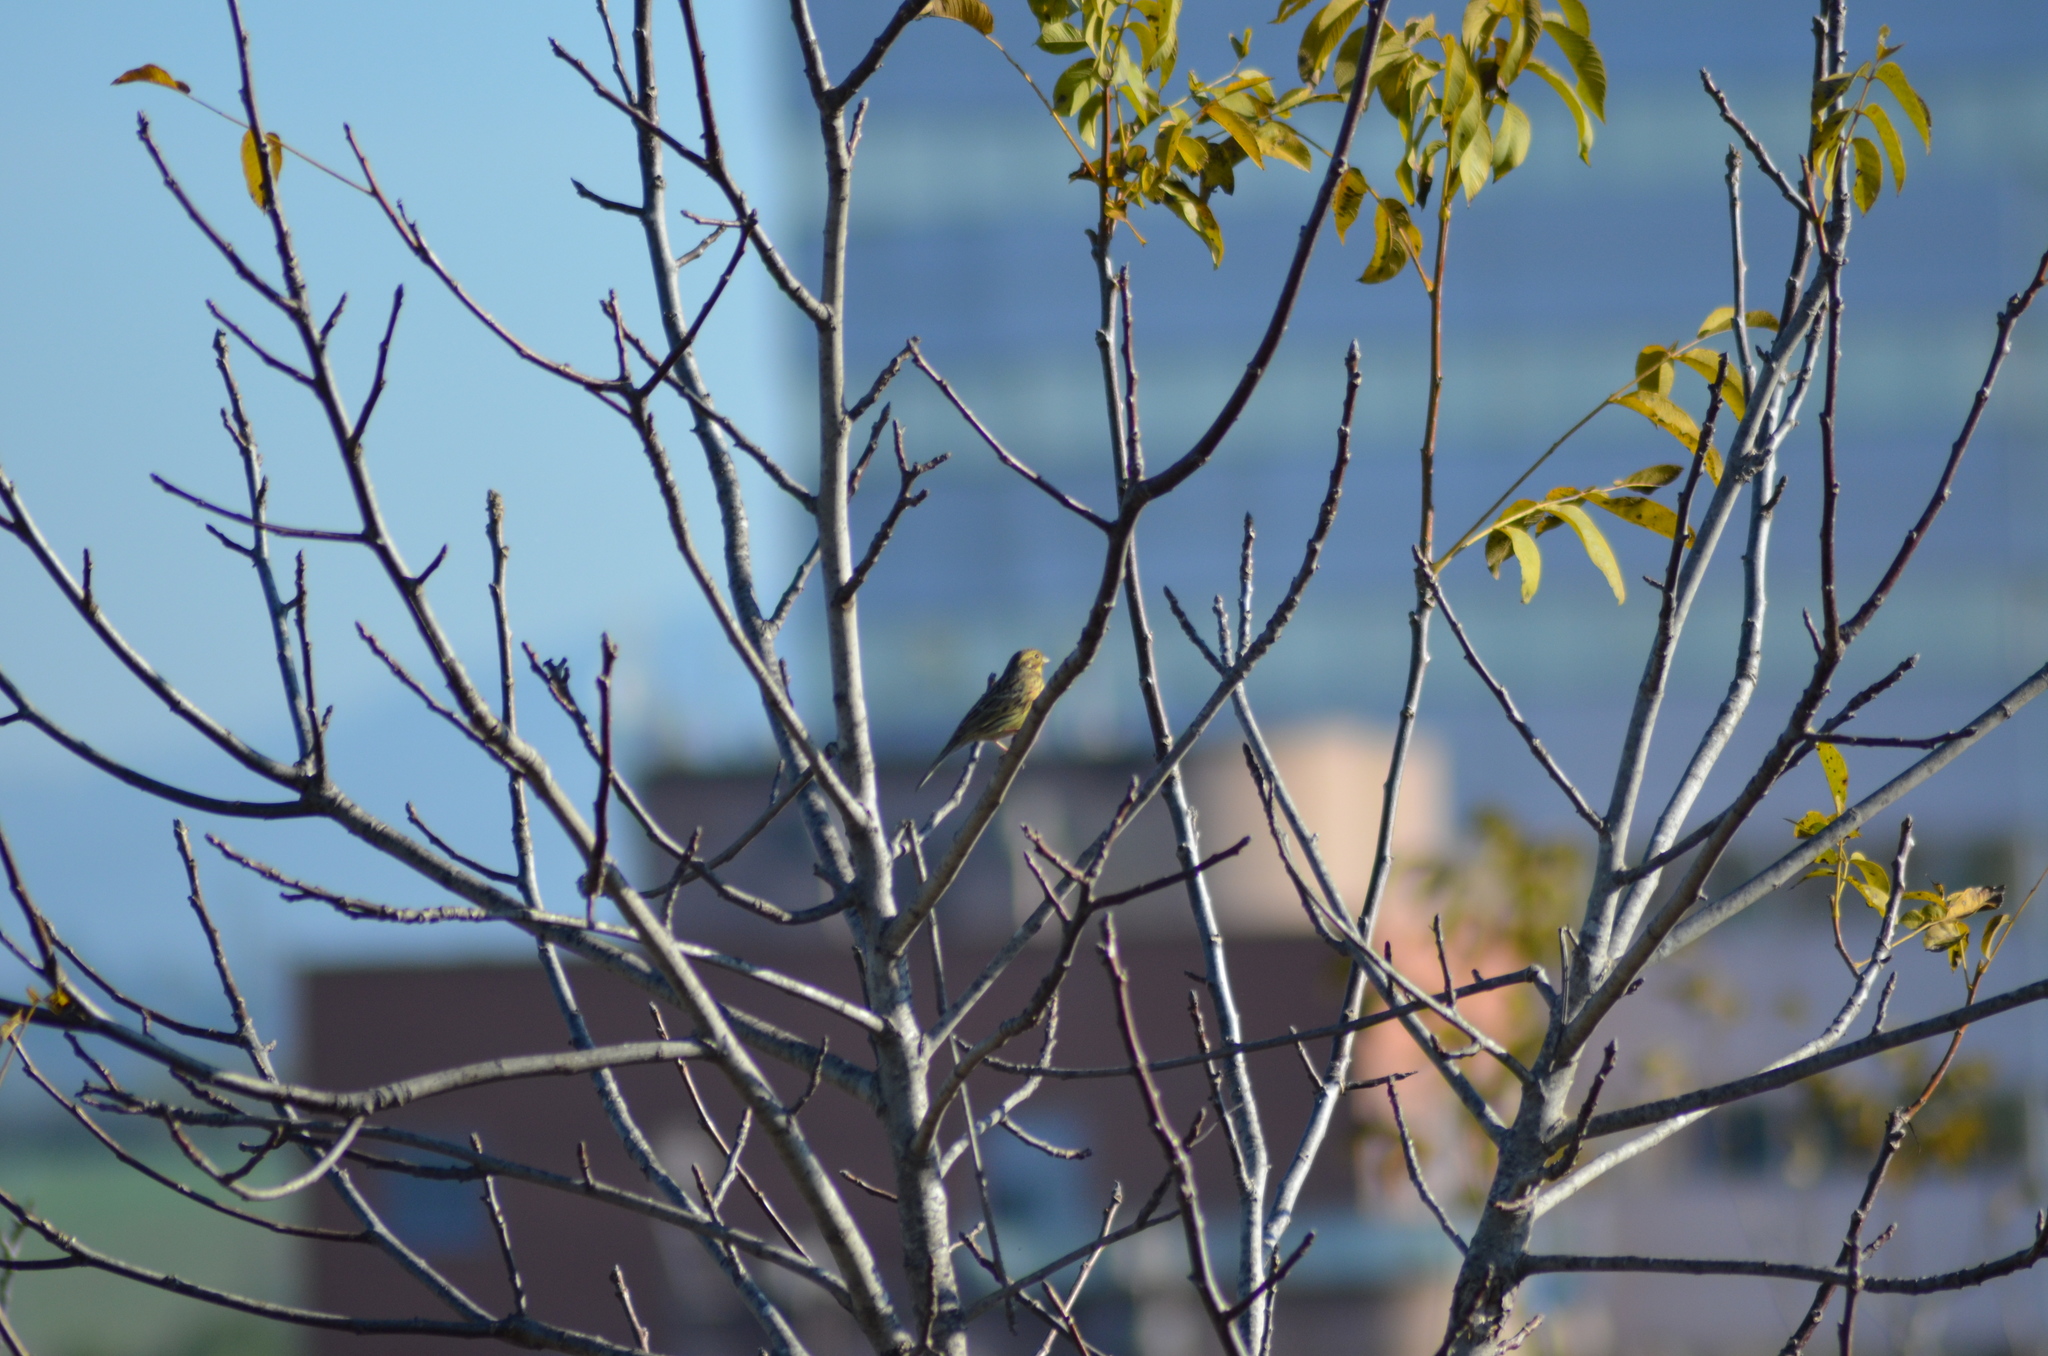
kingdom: Animalia
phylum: Chordata
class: Aves
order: Passeriformes
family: Emberizidae
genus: Emberiza
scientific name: Emberiza citrinella
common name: Yellowhammer
